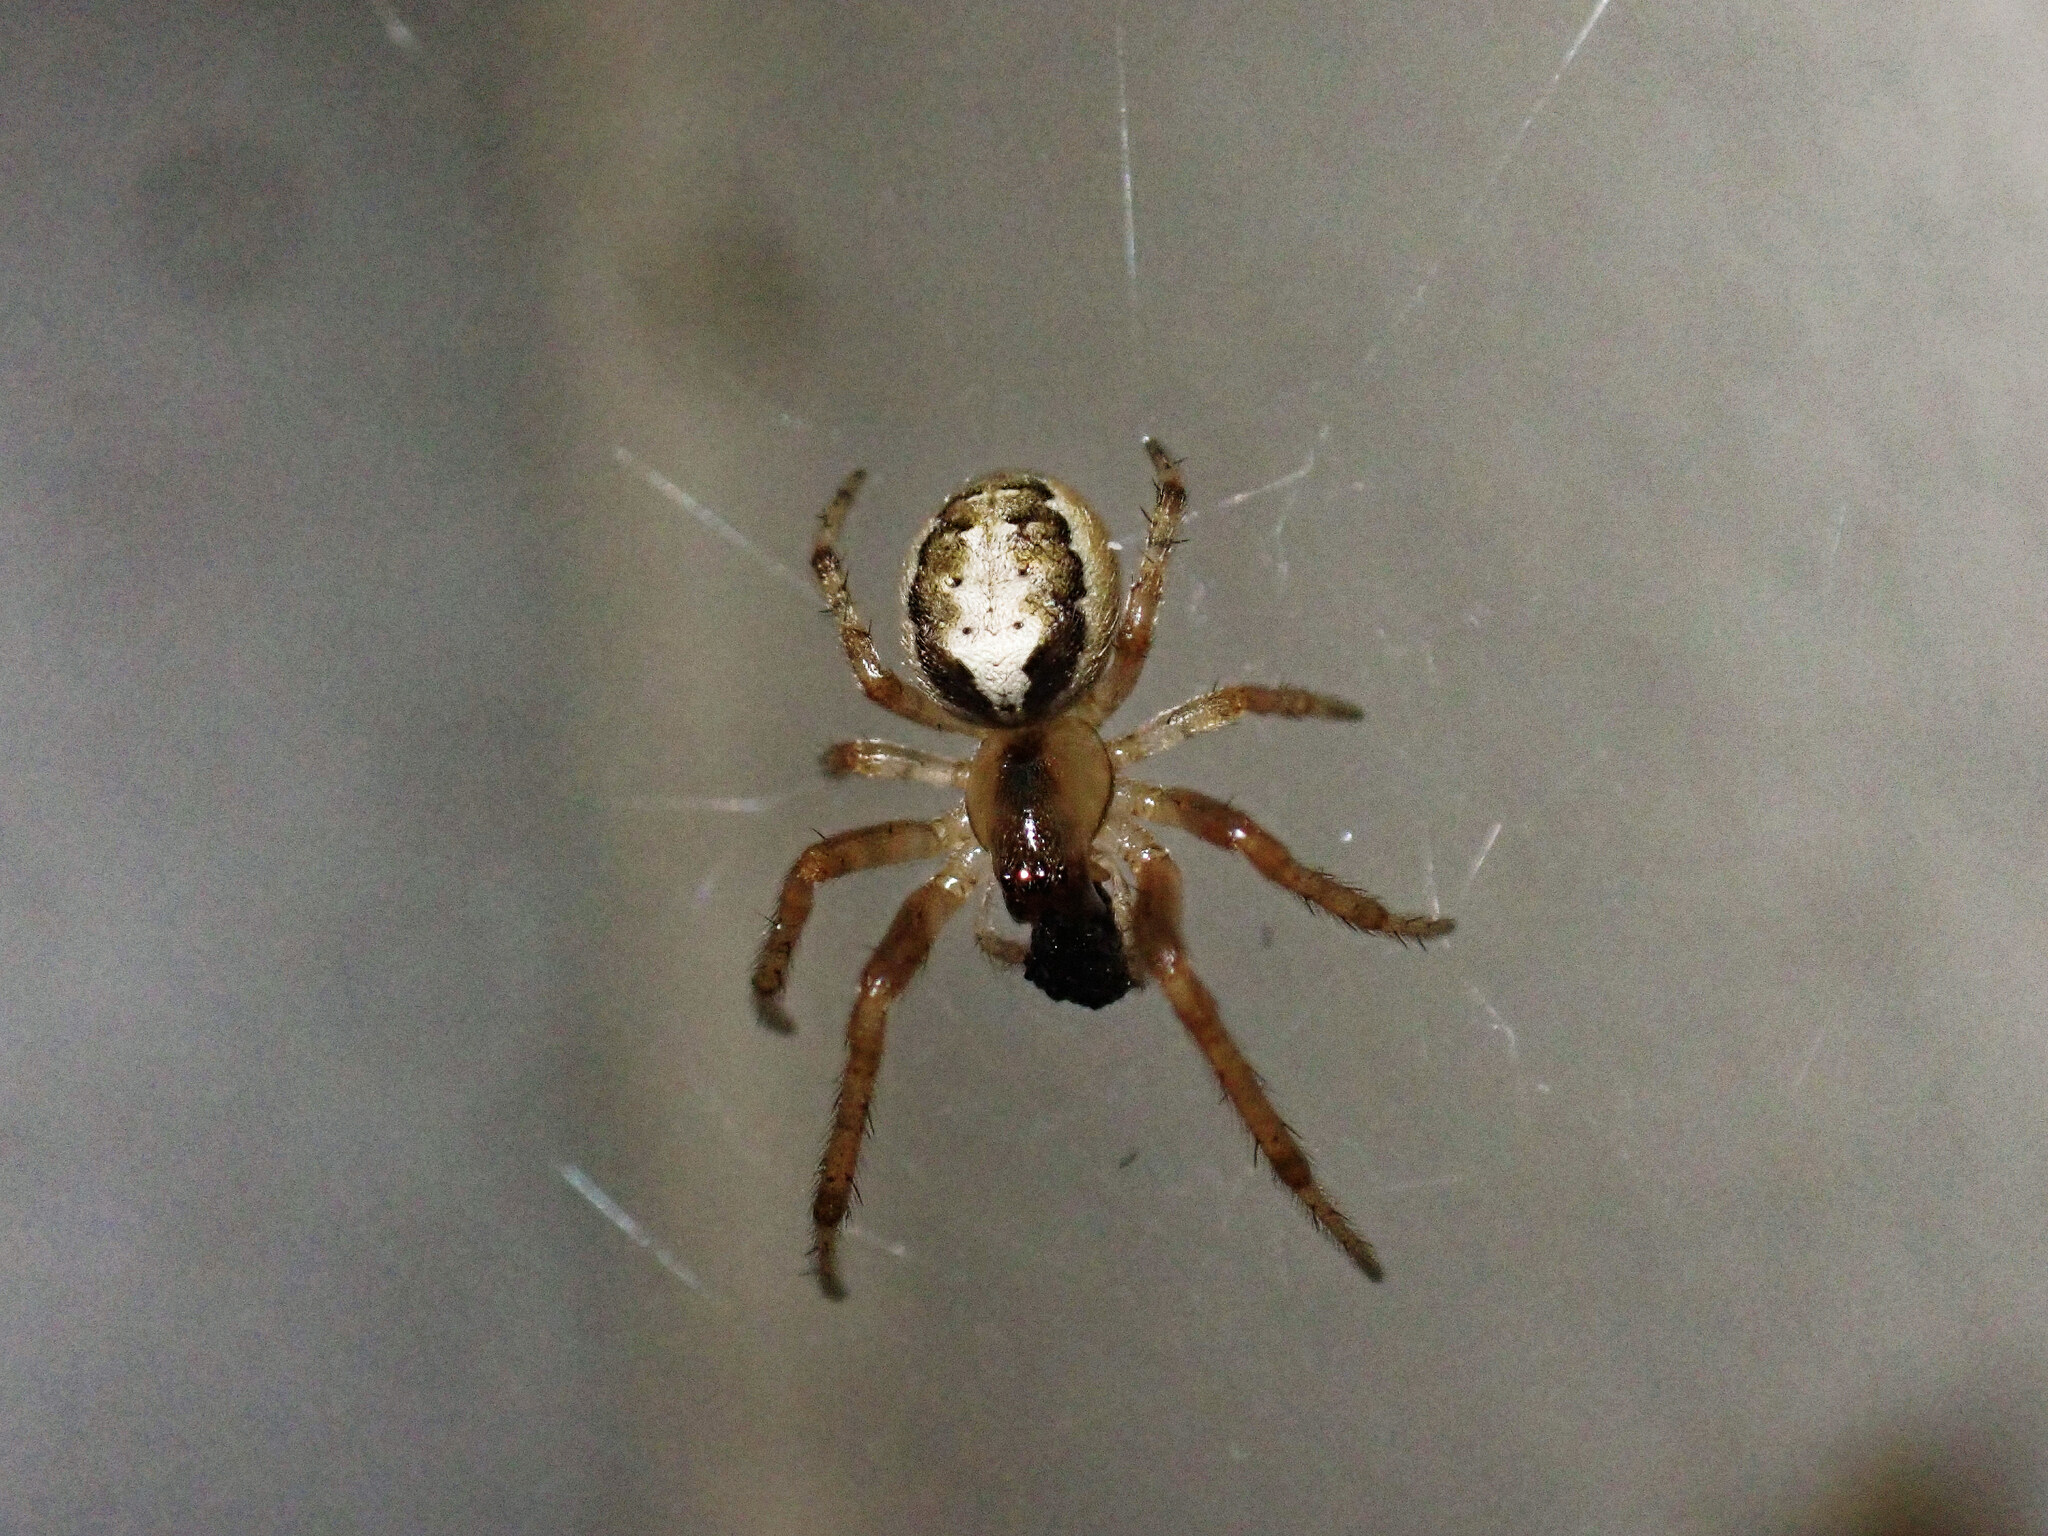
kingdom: Animalia
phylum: Arthropoda
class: Arachnida
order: Araneae
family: Araneidae
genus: Zygiella
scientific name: Zygiella x-notata
